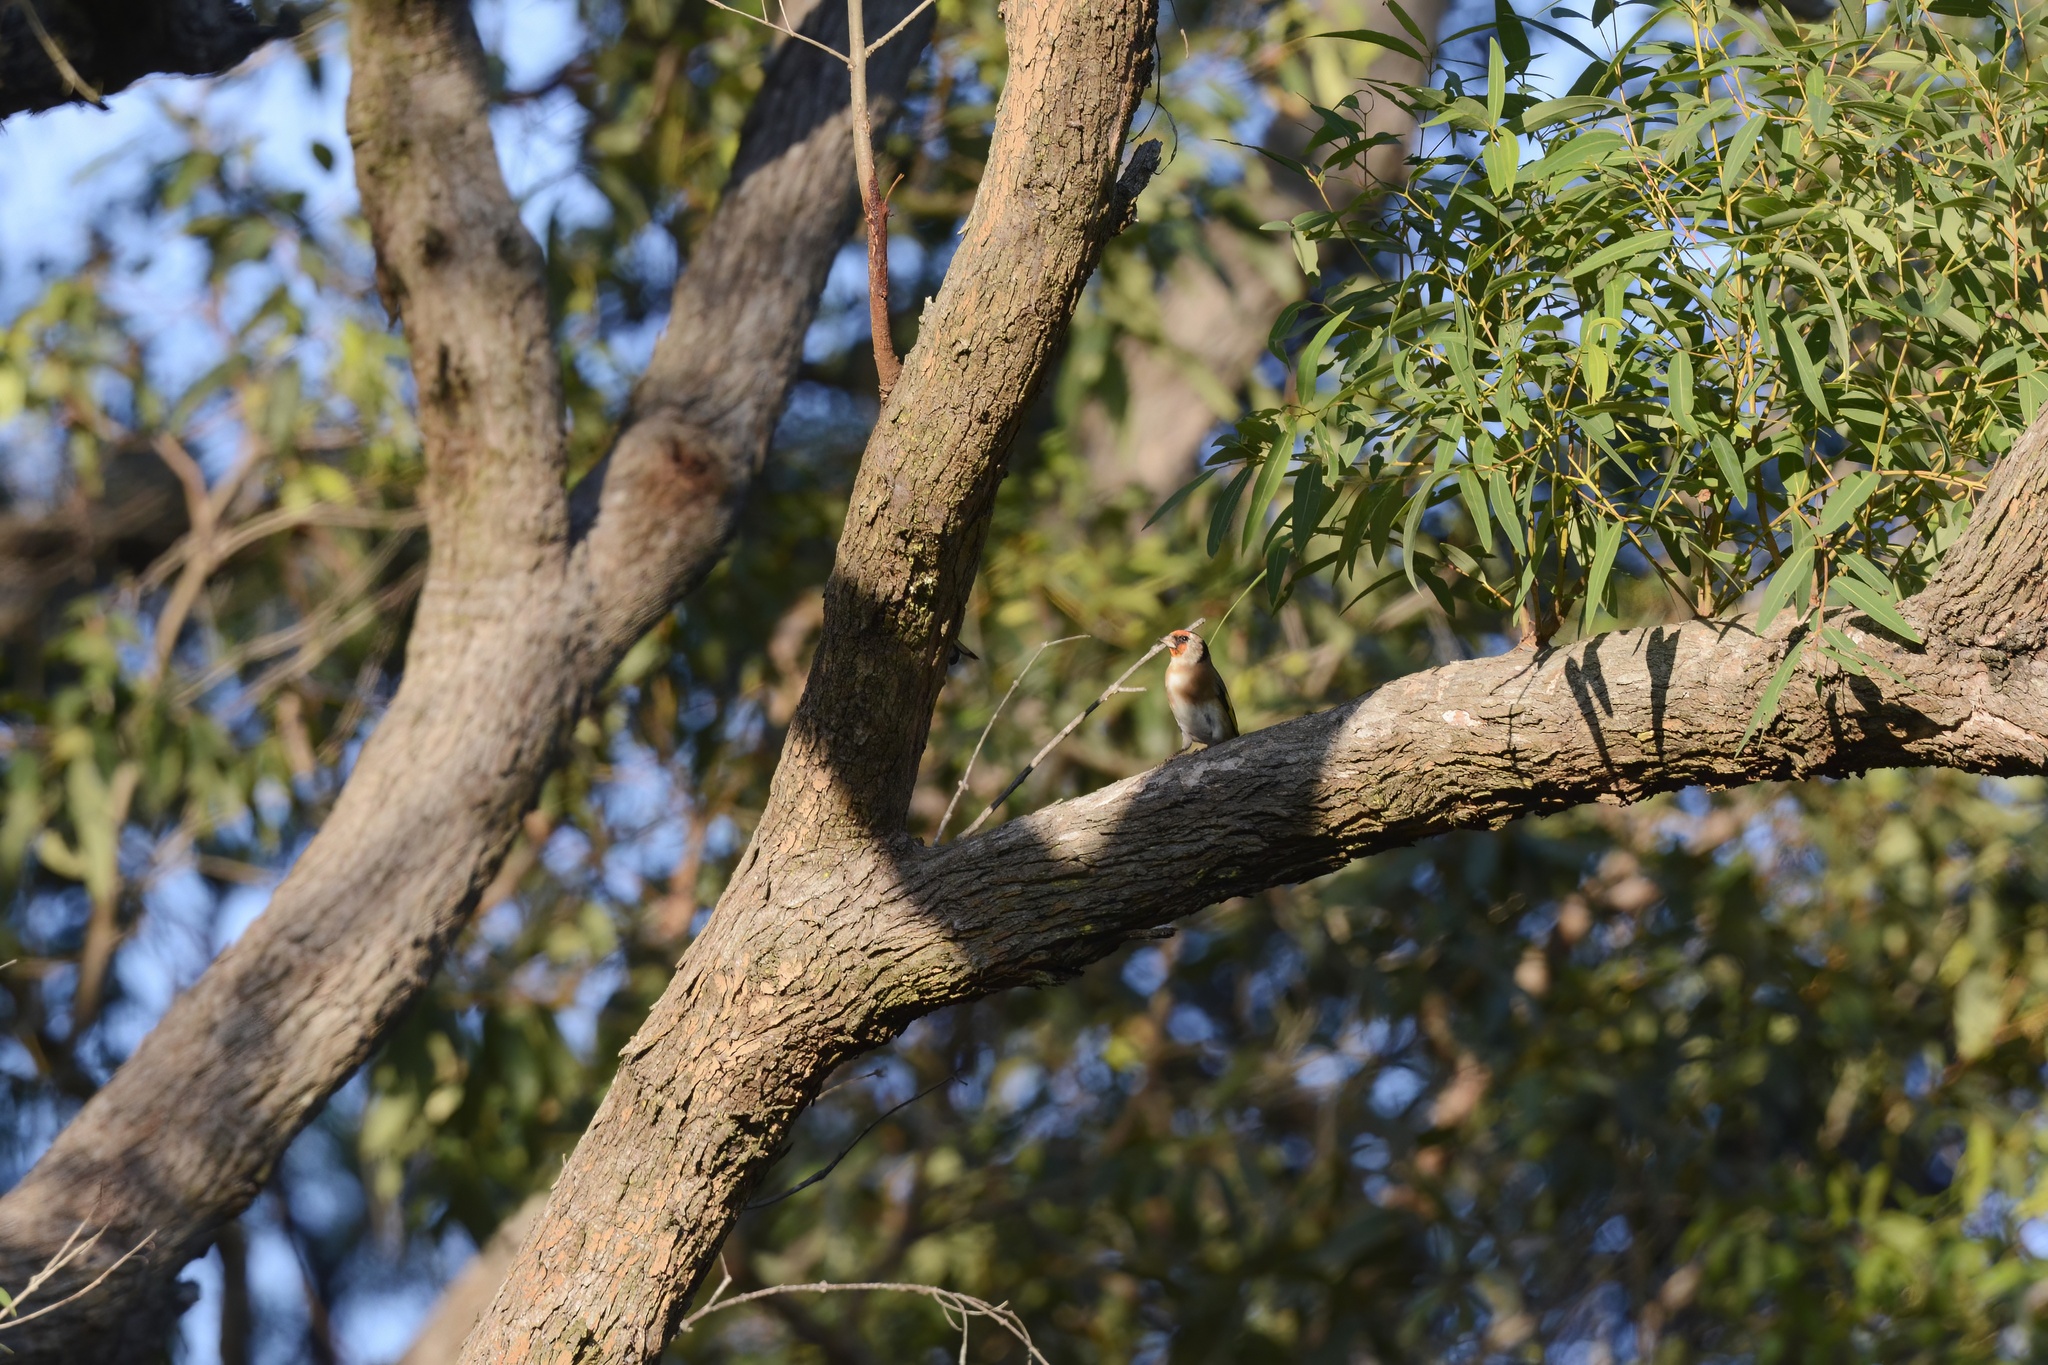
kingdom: Animalia
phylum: Chordata
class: Aves
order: Passeriformes
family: Fringillidae
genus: Carduelis
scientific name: Carduelis carduelis
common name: European goldfinch
